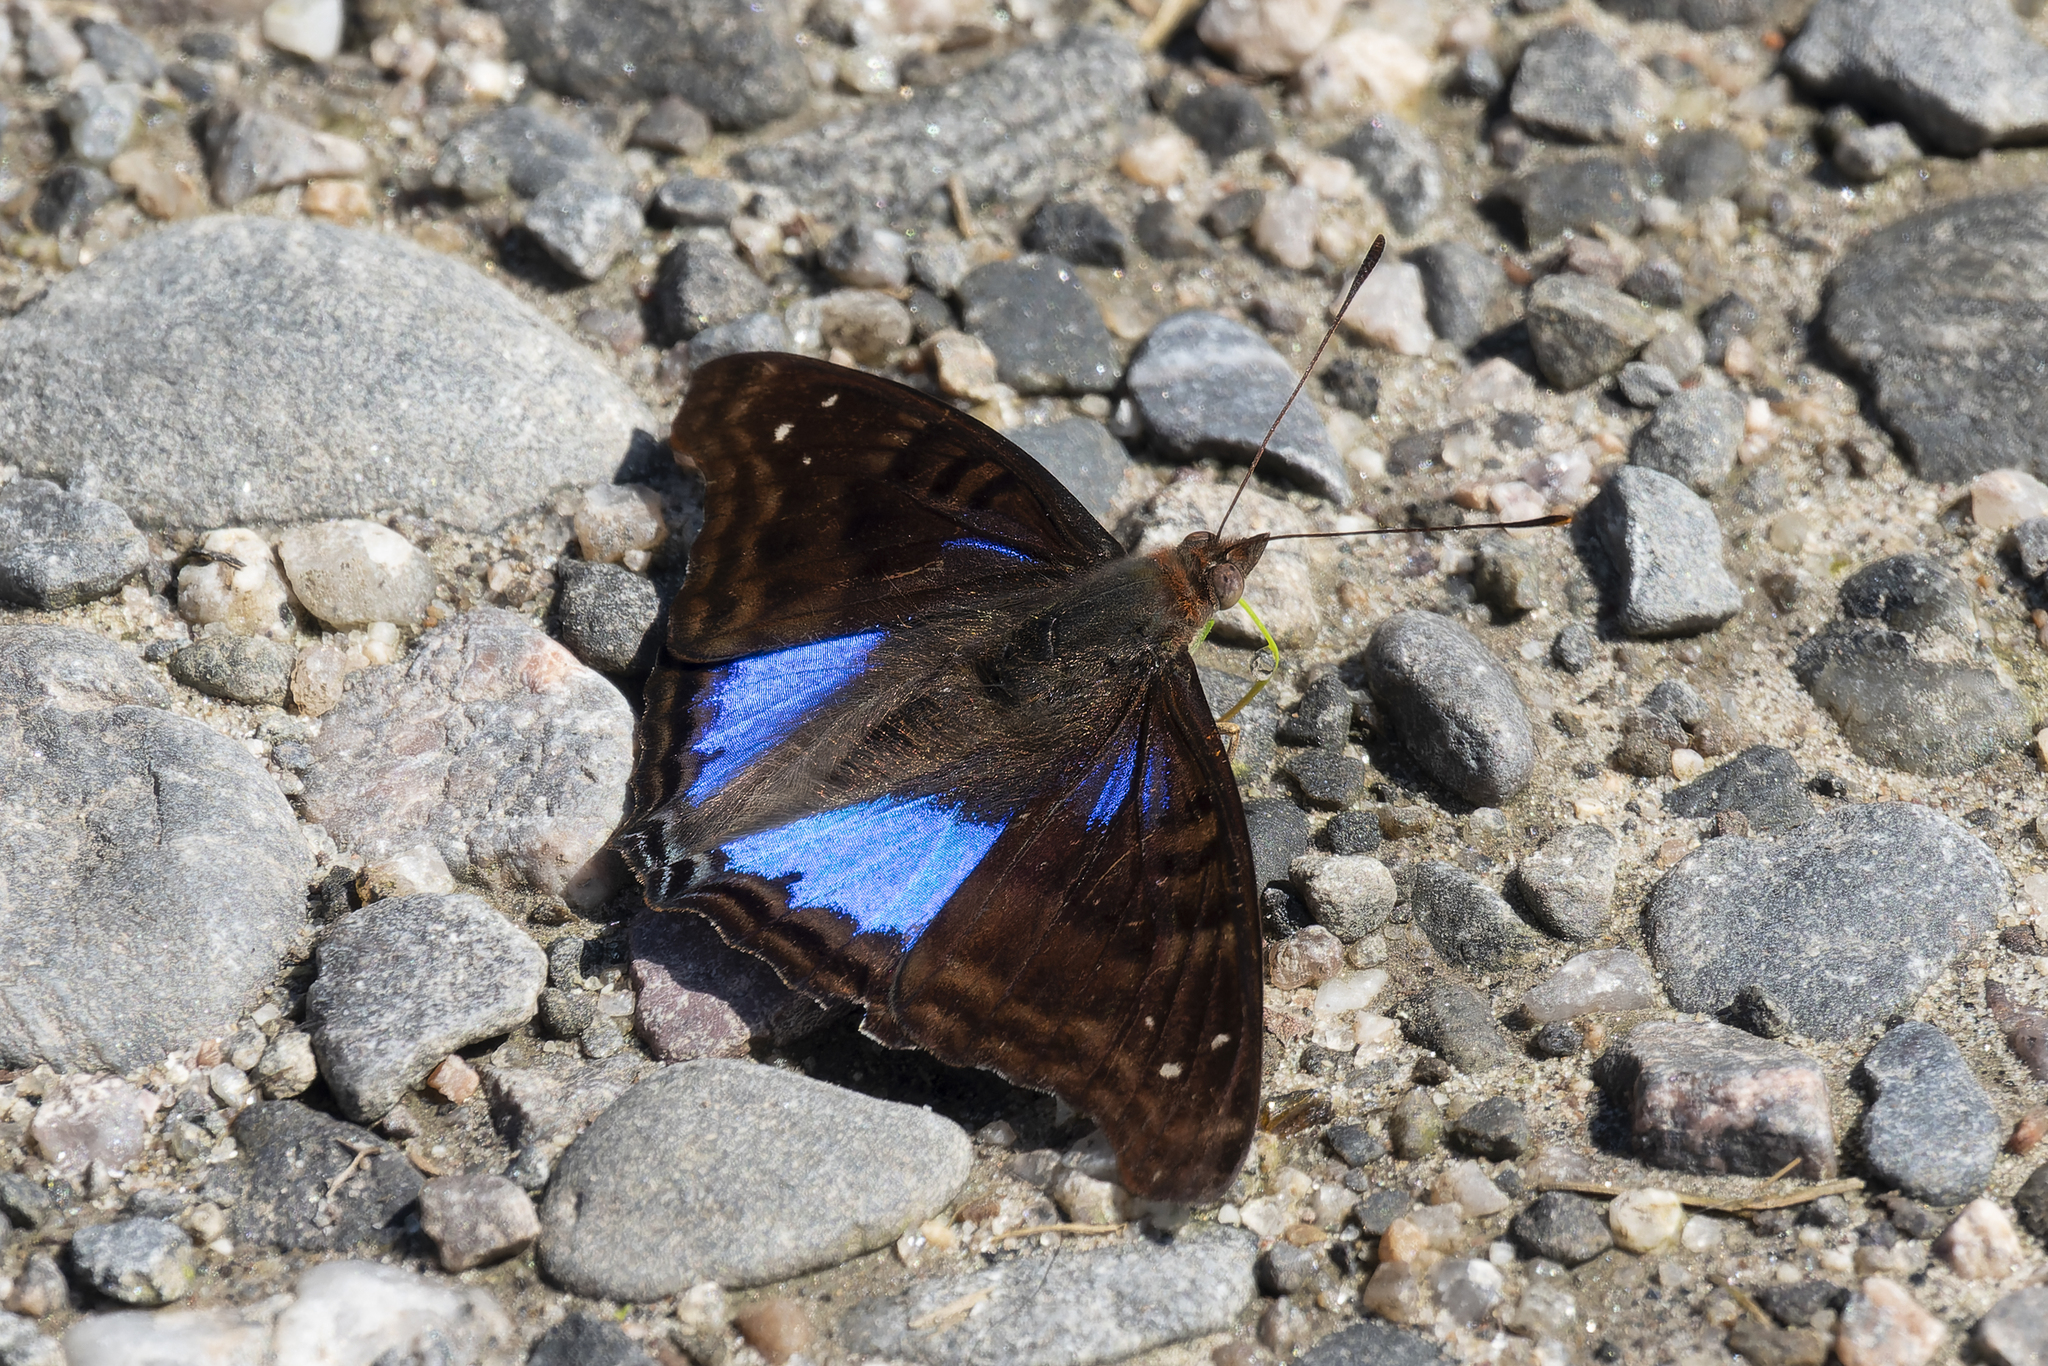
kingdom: Animalia
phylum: Arthropoda
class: Insecta
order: Lepidoptera
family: Nymphalidae
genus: Doxocopa
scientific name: Doxocopa cyane
